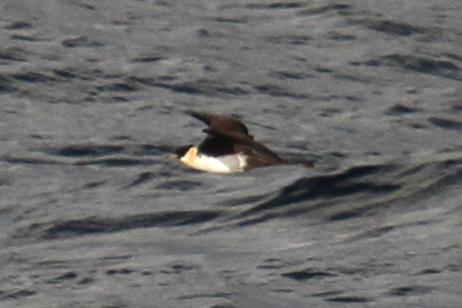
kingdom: Animalia
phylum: Chordata
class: Aves
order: Charadriiformes
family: Stercorariidae
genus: Stercorarius
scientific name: Stercorarius pomarinus
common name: Pomarine jaeger
